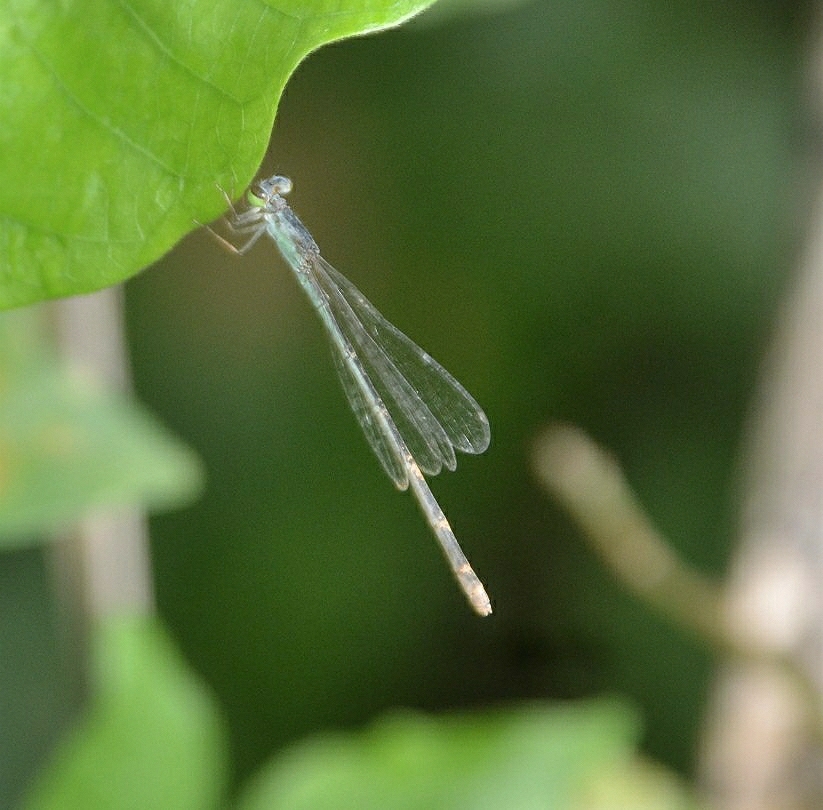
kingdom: Animalia
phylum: Arthropoda
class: Insecta
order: Odonata
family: Coenagrionidae
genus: Ischnura
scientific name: Ischnura senegalensis
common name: Tropical bluetail
